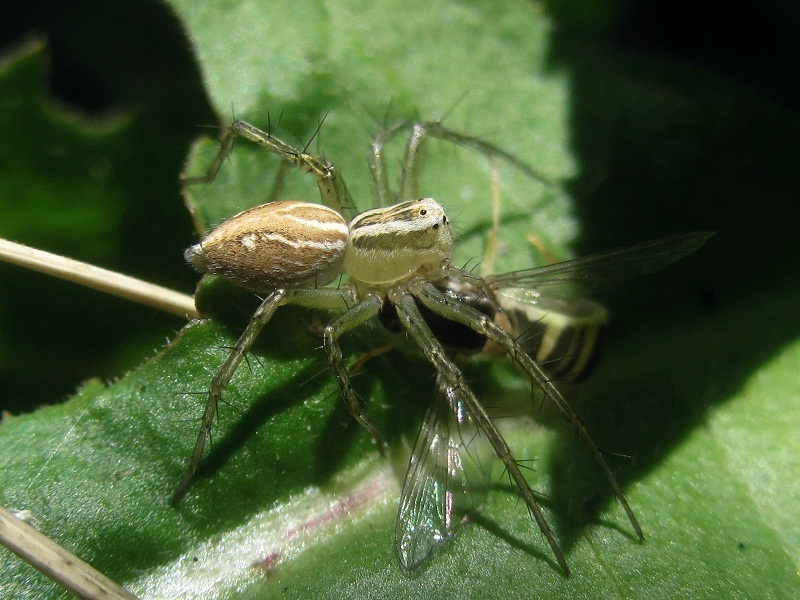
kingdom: Animalia
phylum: Arthropoda
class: Arachnida
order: Araneae
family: Oxyopidae
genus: Oxyopes
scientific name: Oxyopes lineatus
